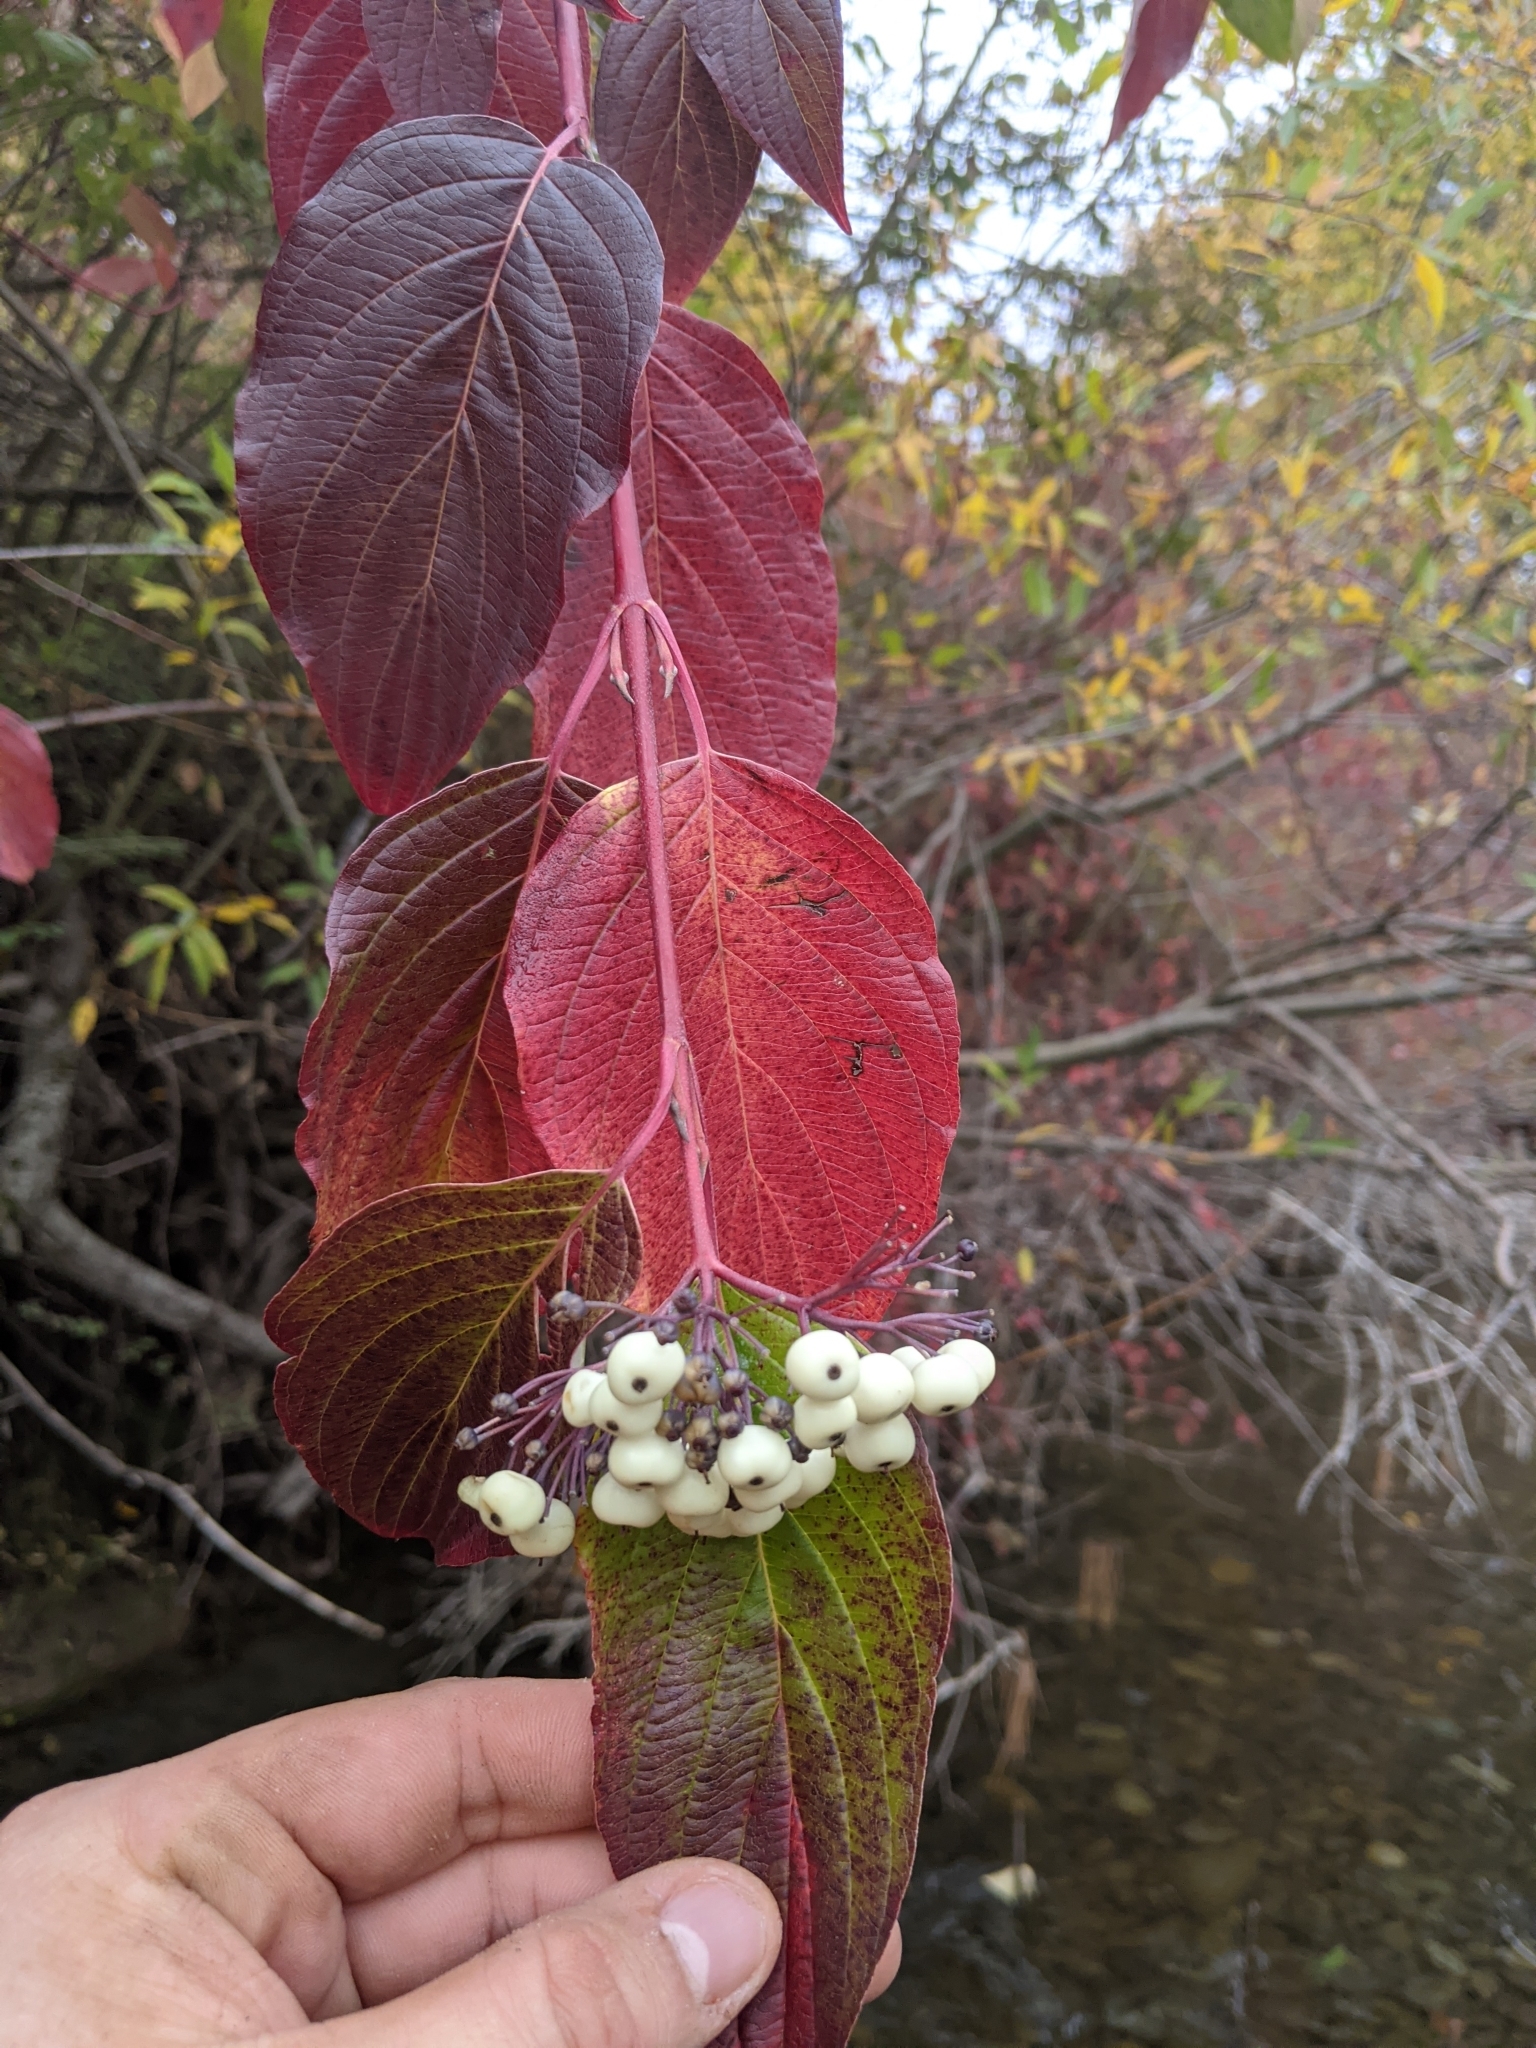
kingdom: Plantae
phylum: Tracheophyta
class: Magnoliopsida
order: Cornales
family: Cornaceae
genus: Cornus
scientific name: Cornus sericea
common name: Red-osier dogwood
